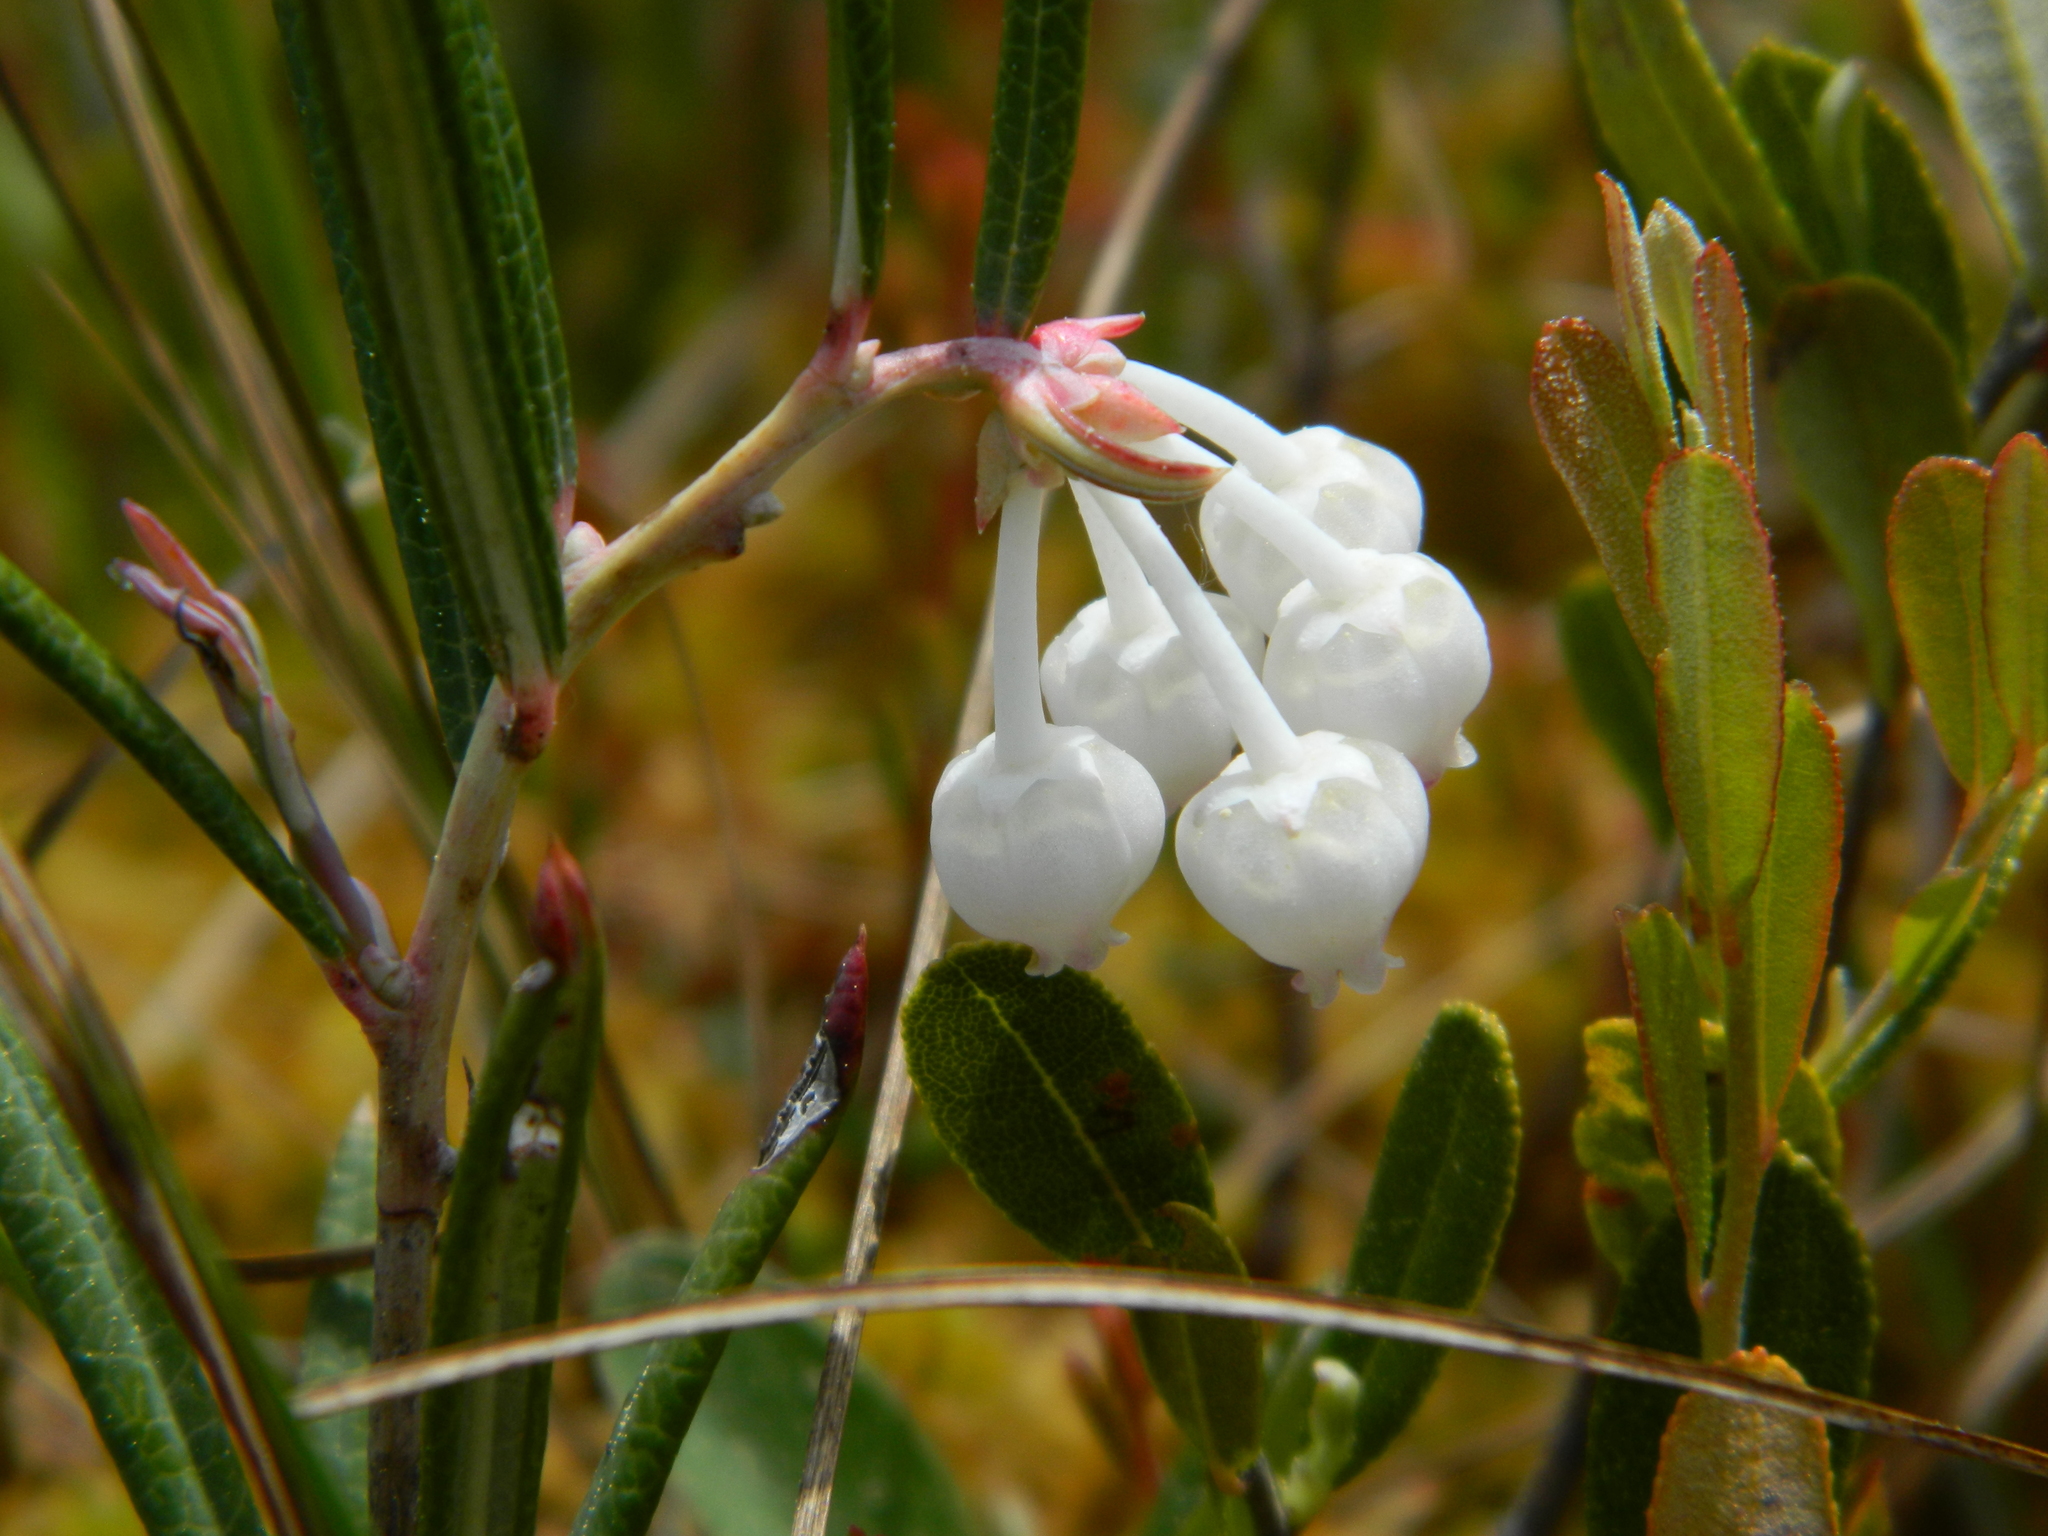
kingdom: Plantae
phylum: Tracheophyta
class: Magnoliopsida
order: Ericales
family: Ericaceae
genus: Andromeda
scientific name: Andromeda polifolia
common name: Bog-rosemary
